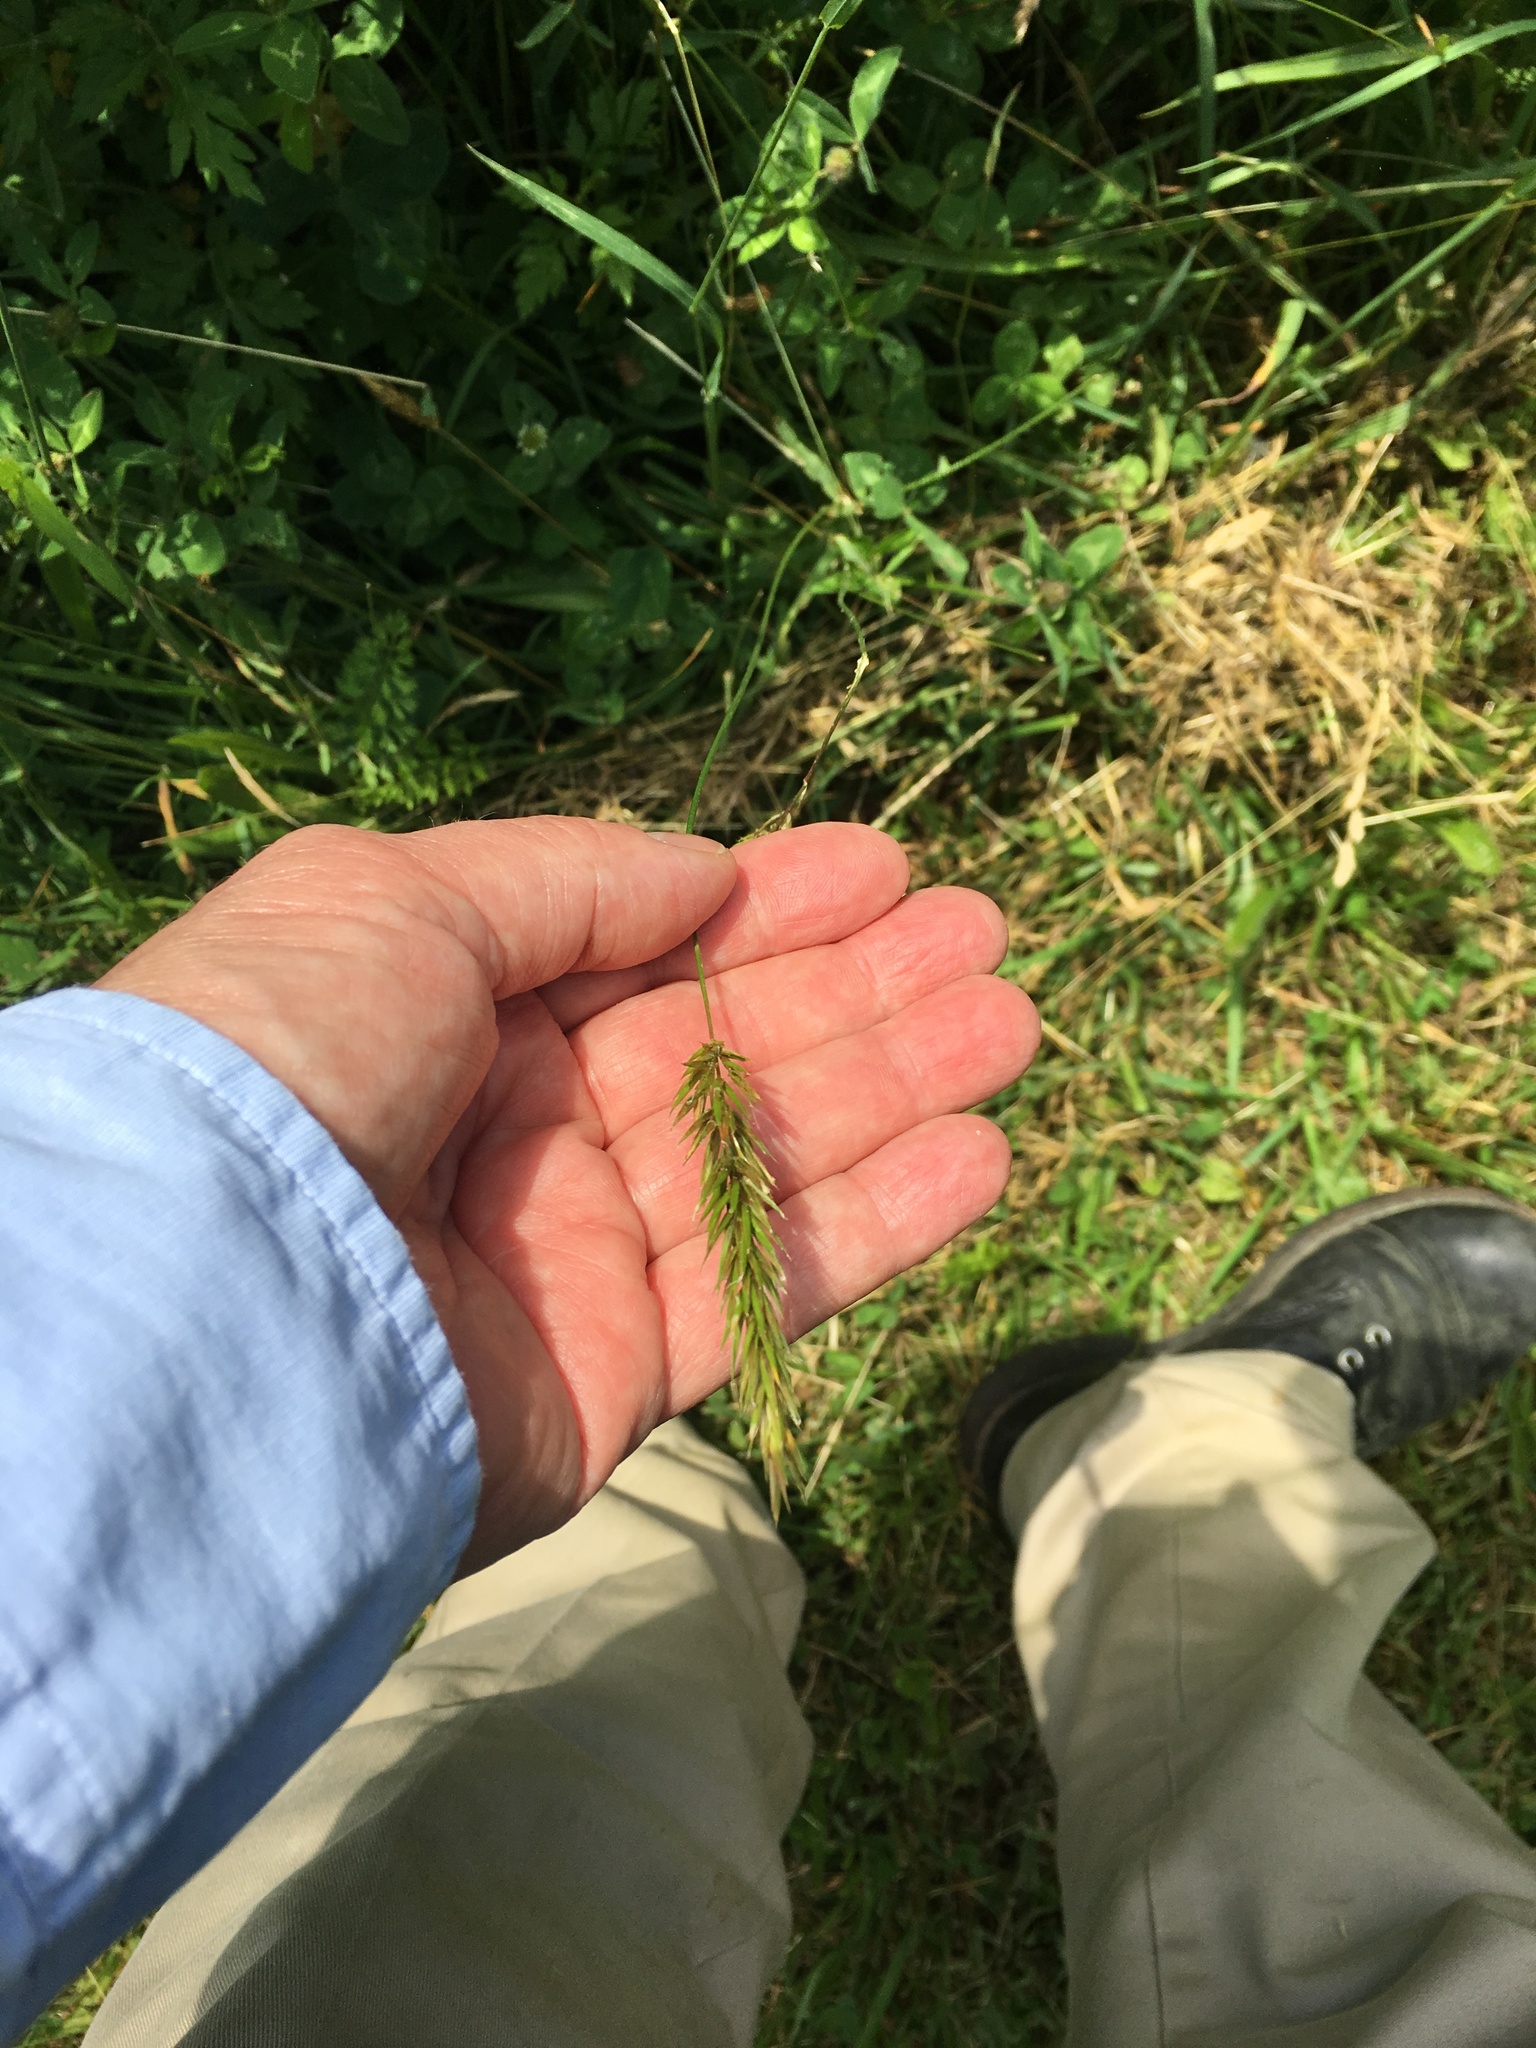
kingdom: Plantae
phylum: Tracheophyta
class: Liliopsida
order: Poales
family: Poaceae
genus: Anthoxanthum
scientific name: Anthoxanthum odoratum
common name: Sweet vernalgrass
